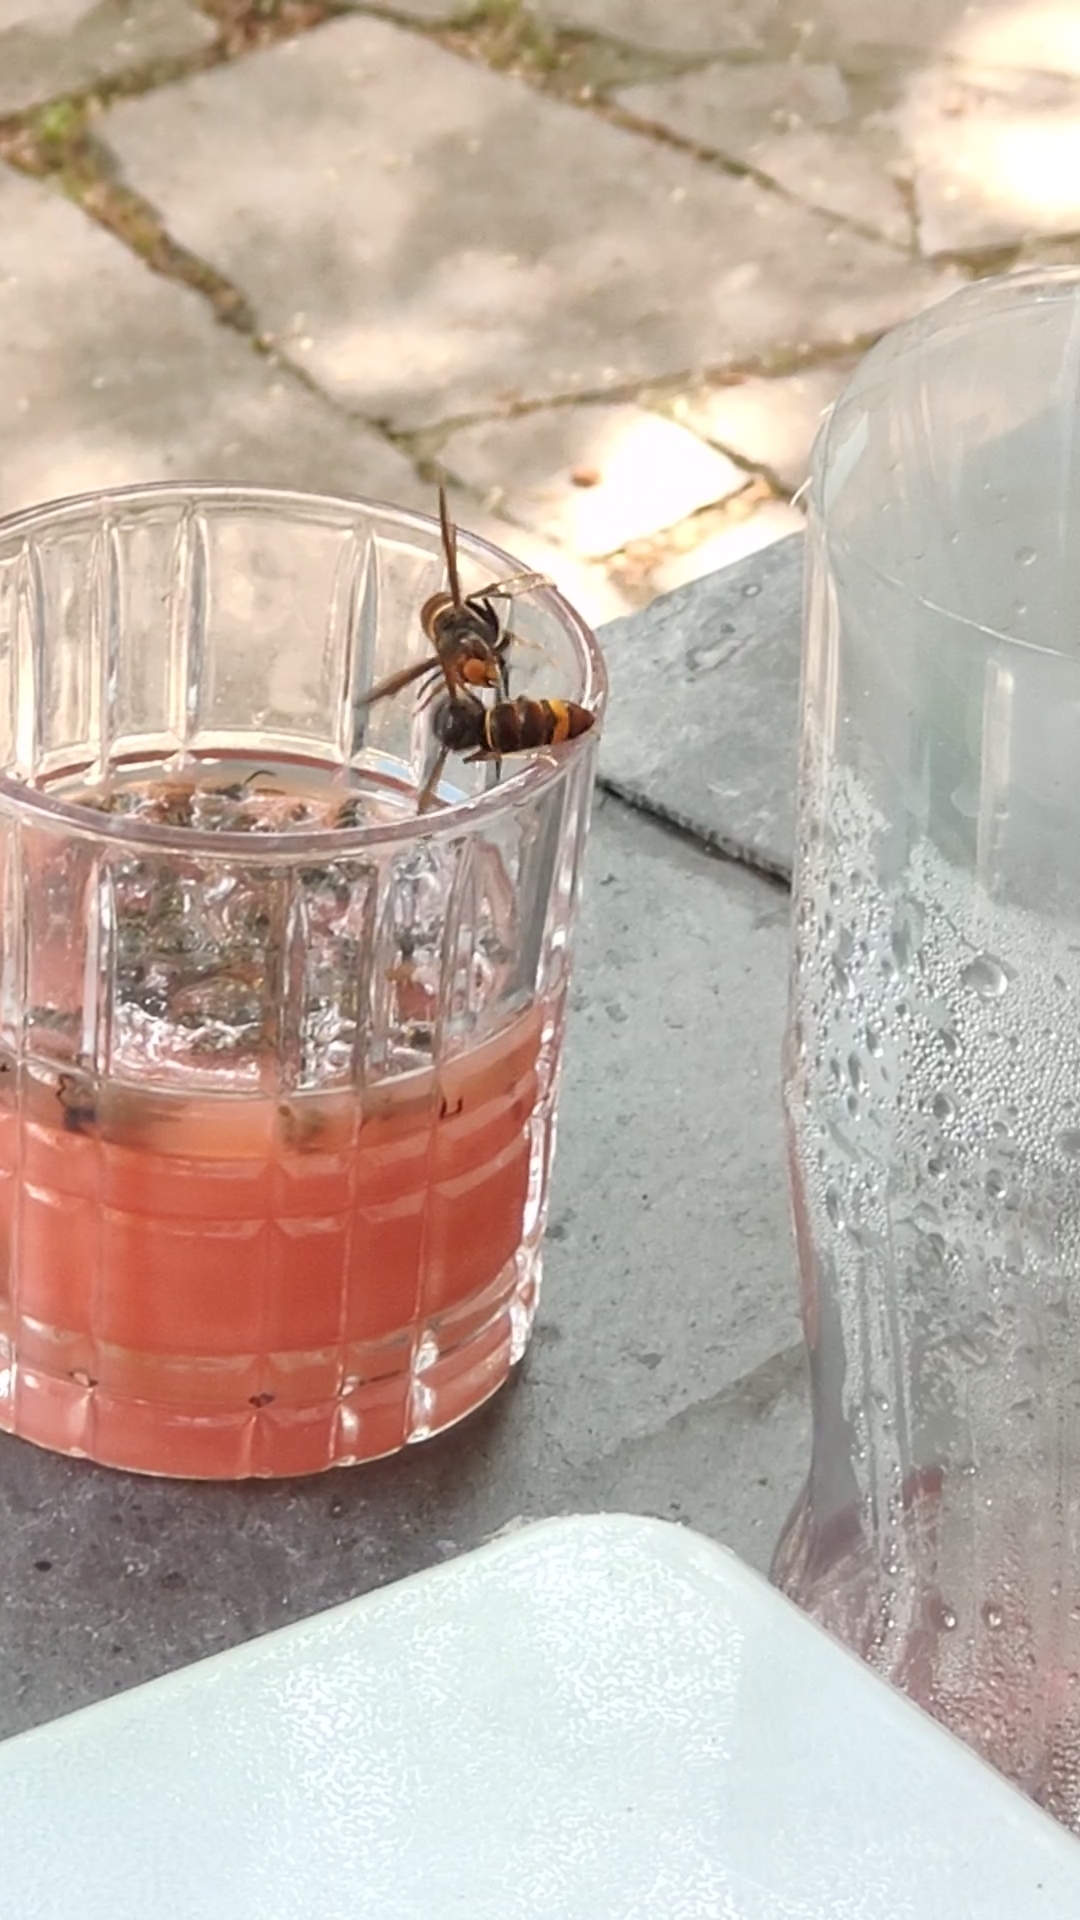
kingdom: Animalia
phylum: Arthropoda
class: Insecta
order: Hymenoptera
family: Vespidae
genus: Vespa
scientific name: Vespa velutina
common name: Asian hornet
